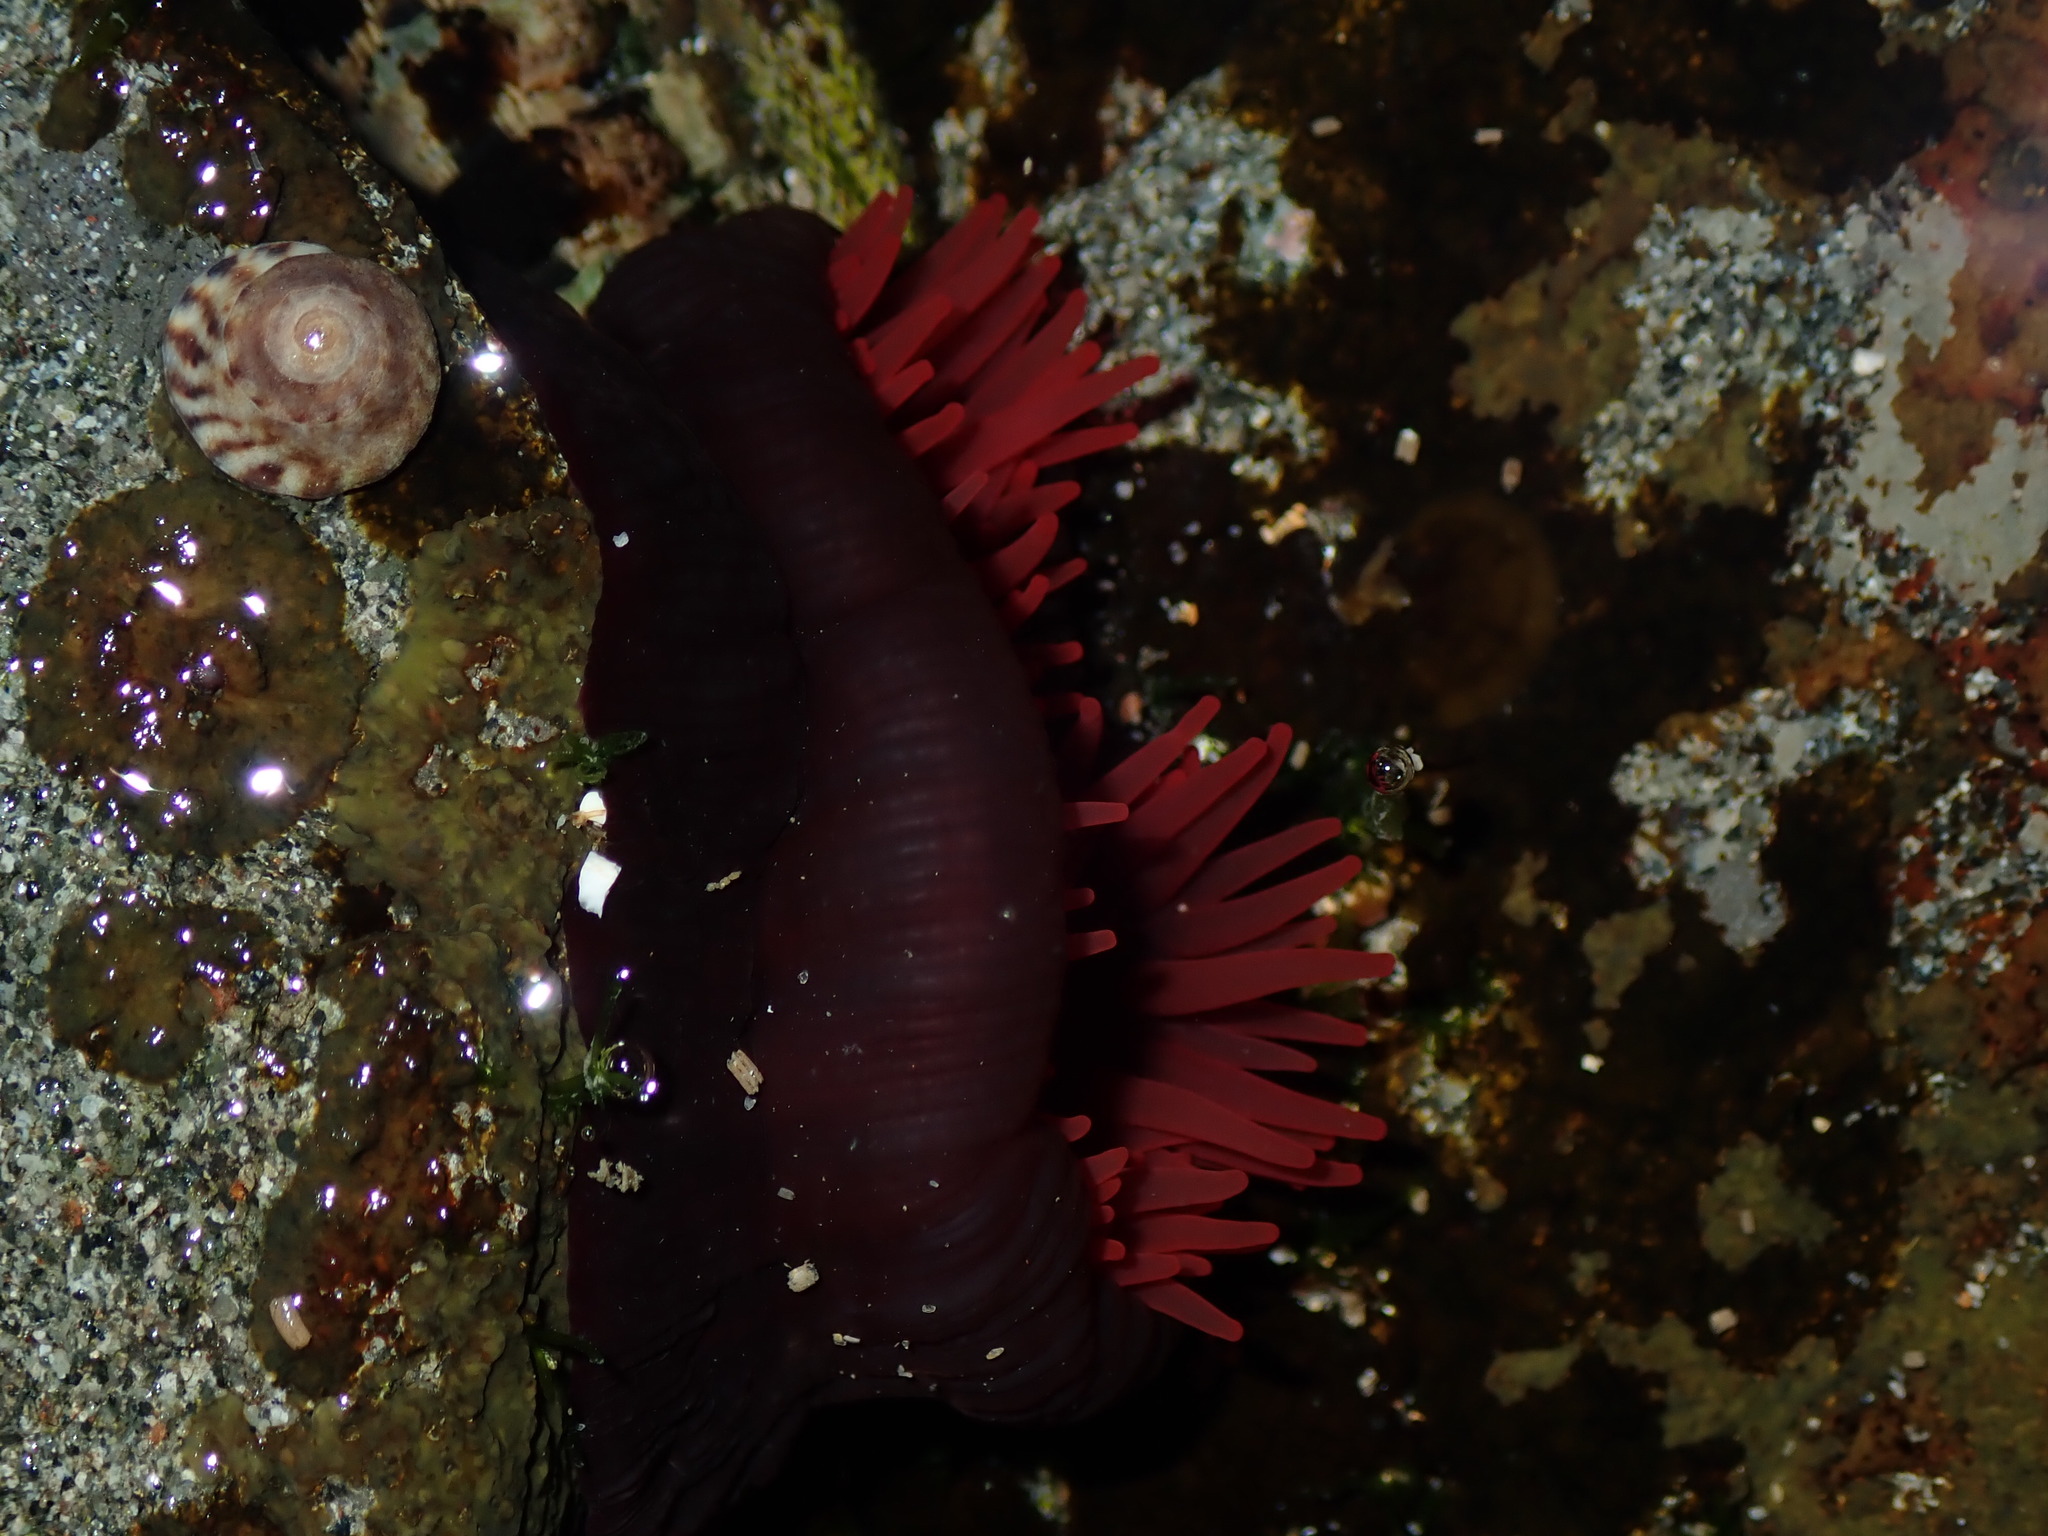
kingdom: Animalia
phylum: Cnidaria
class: Anthozoa
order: Actiniaria
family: Actiniidae
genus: Actinia
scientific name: Actinia tenebrosa
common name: Waratah anemone
